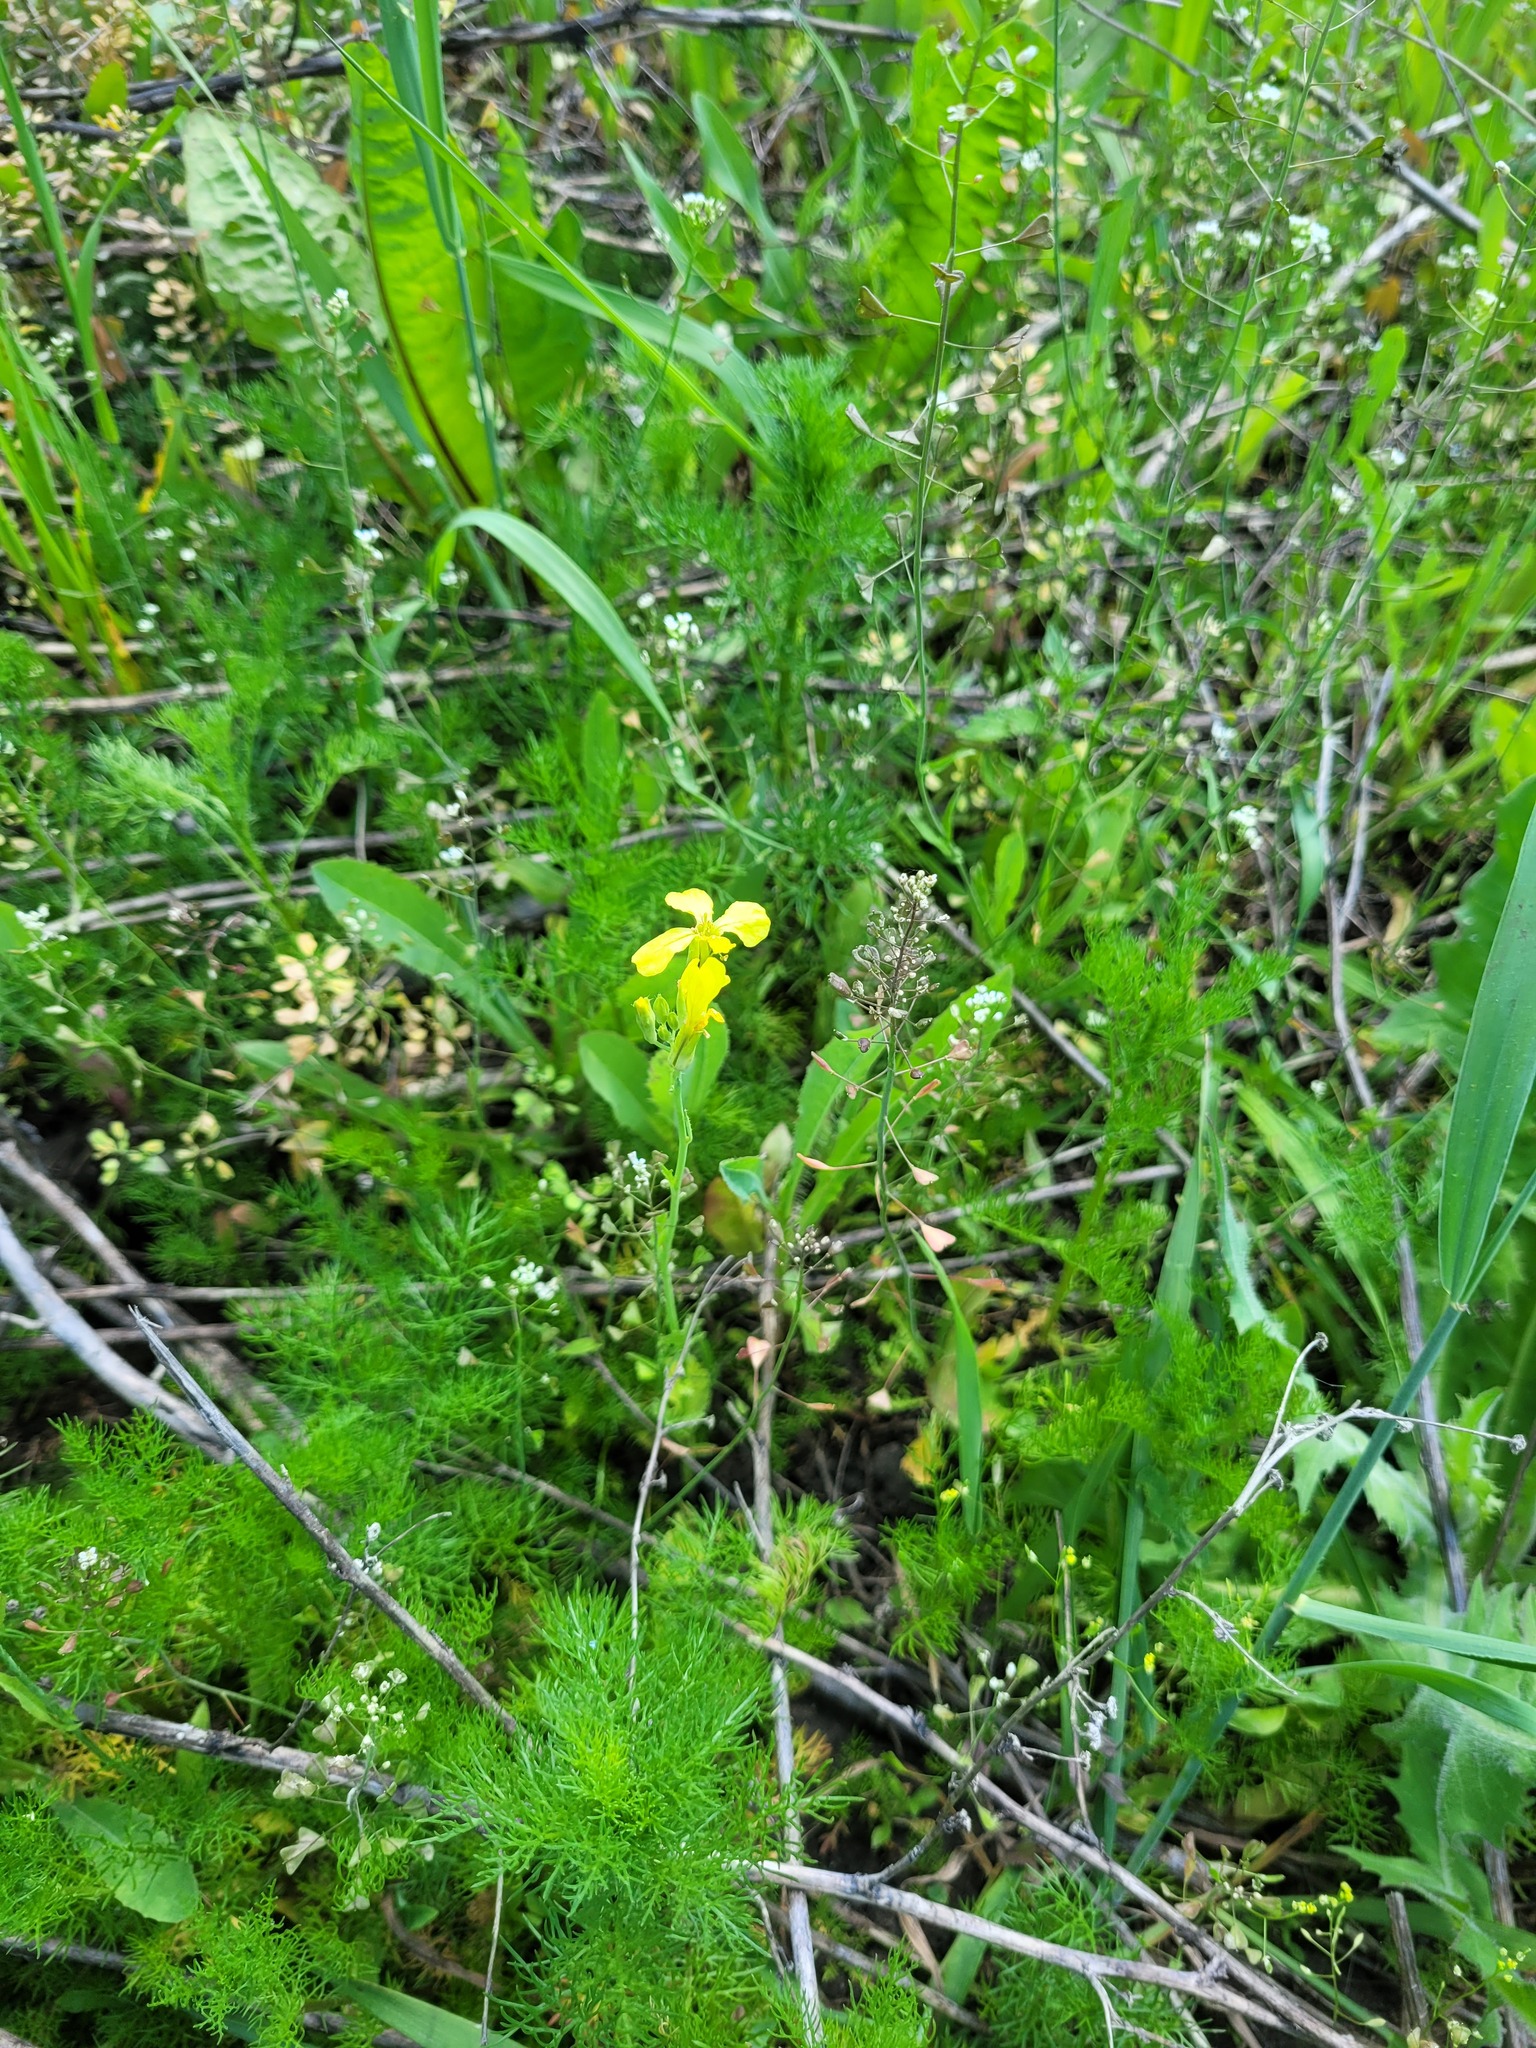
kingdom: Plantae
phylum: Tracheophyta
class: Magnoliopsida
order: Brassicales
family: Brassicaceae
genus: Raphanus
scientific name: Raphanus raphanistrum
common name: Wild radish
